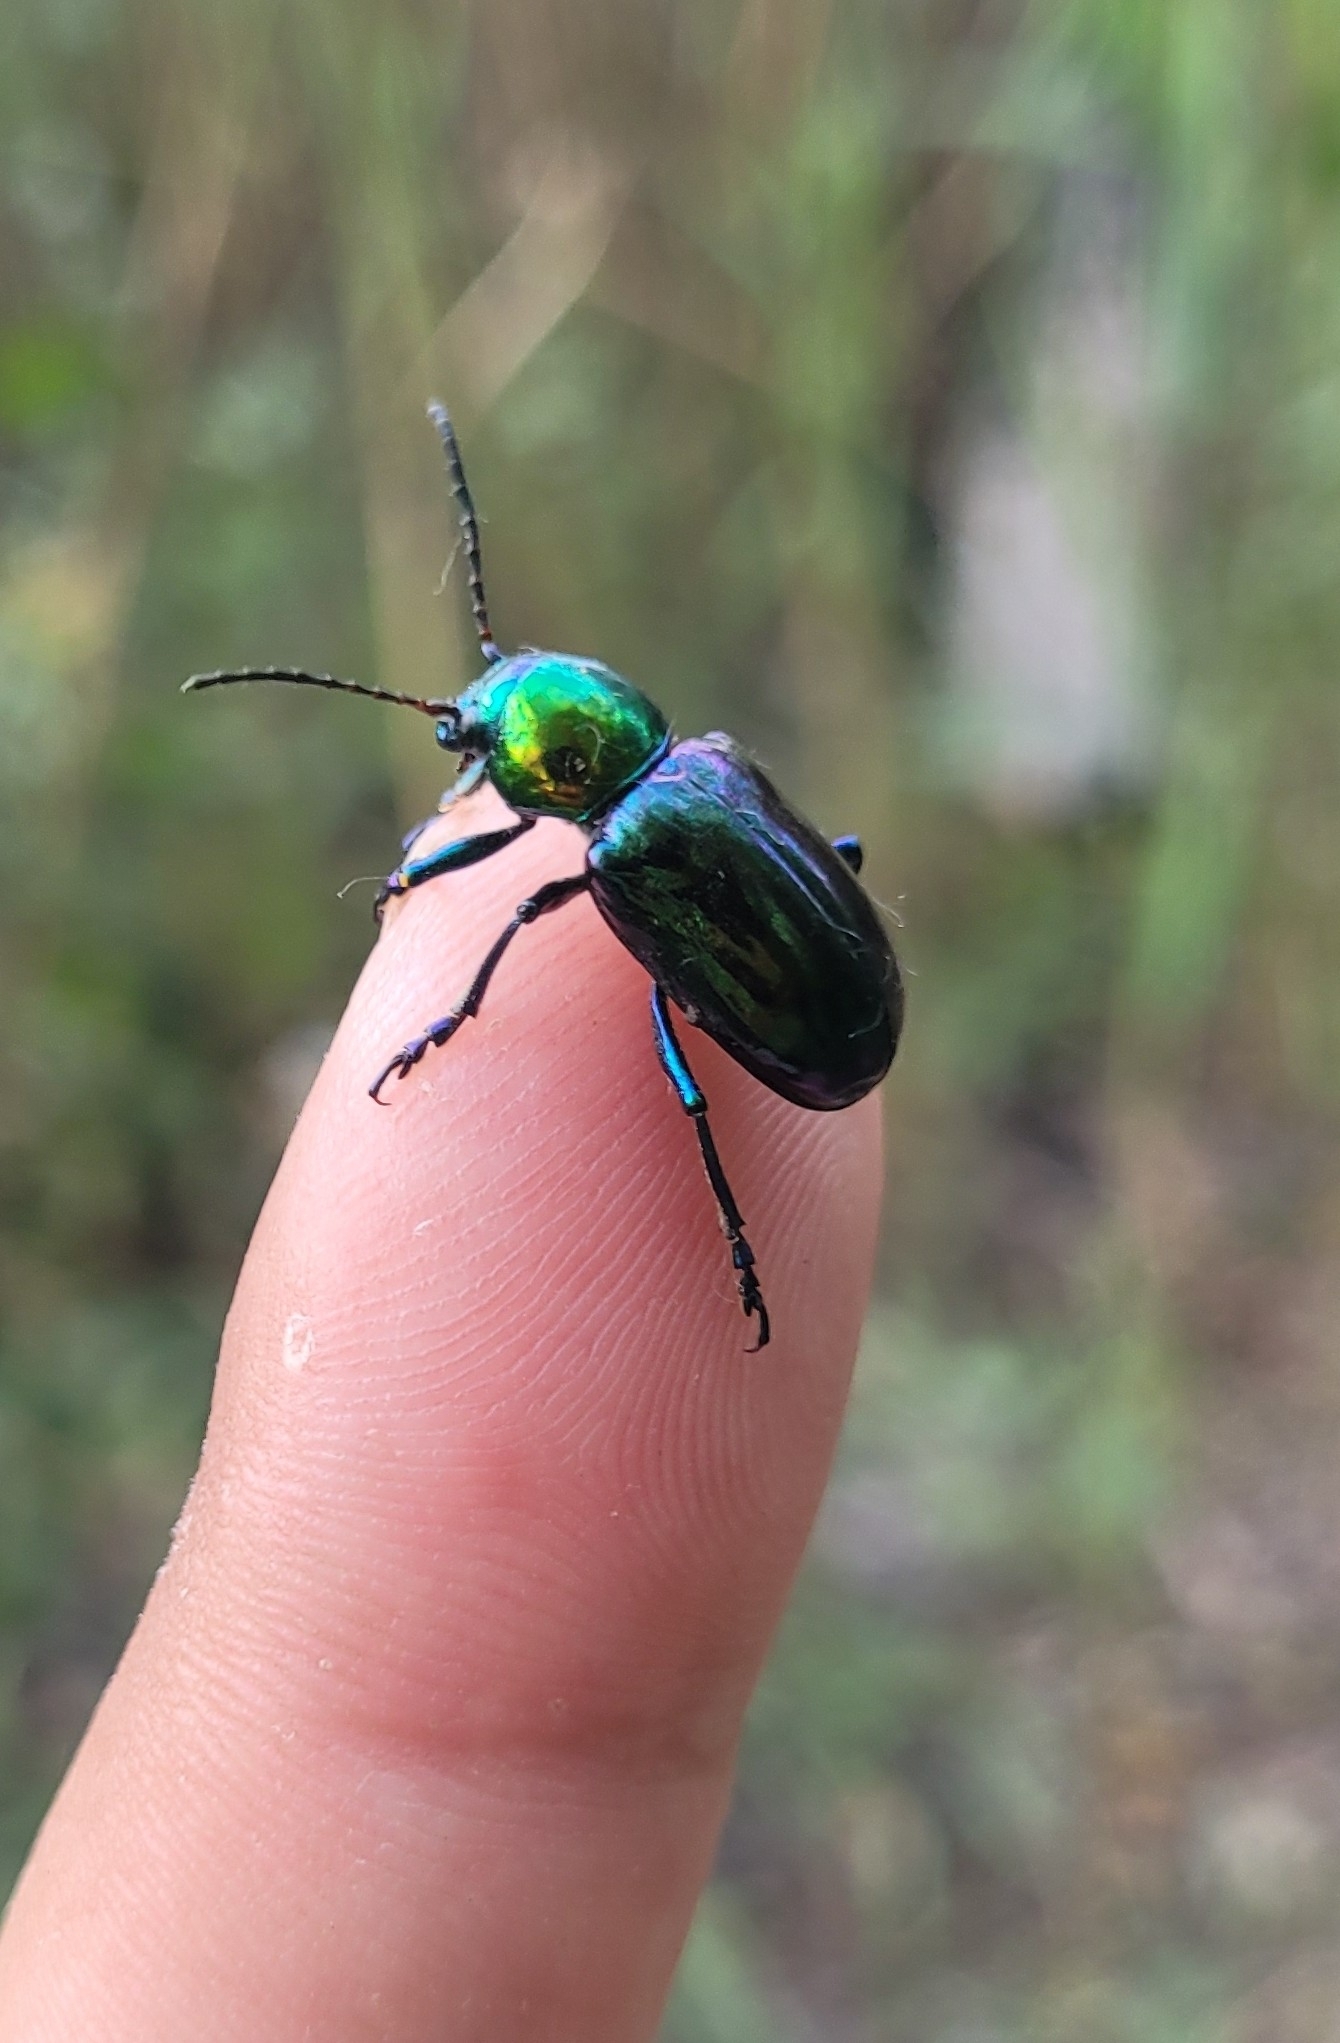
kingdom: Animalia
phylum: Arthropoda
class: Insecta
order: Coleoptera
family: Chrysomelidae
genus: Chrysochares
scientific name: Chrysochares
